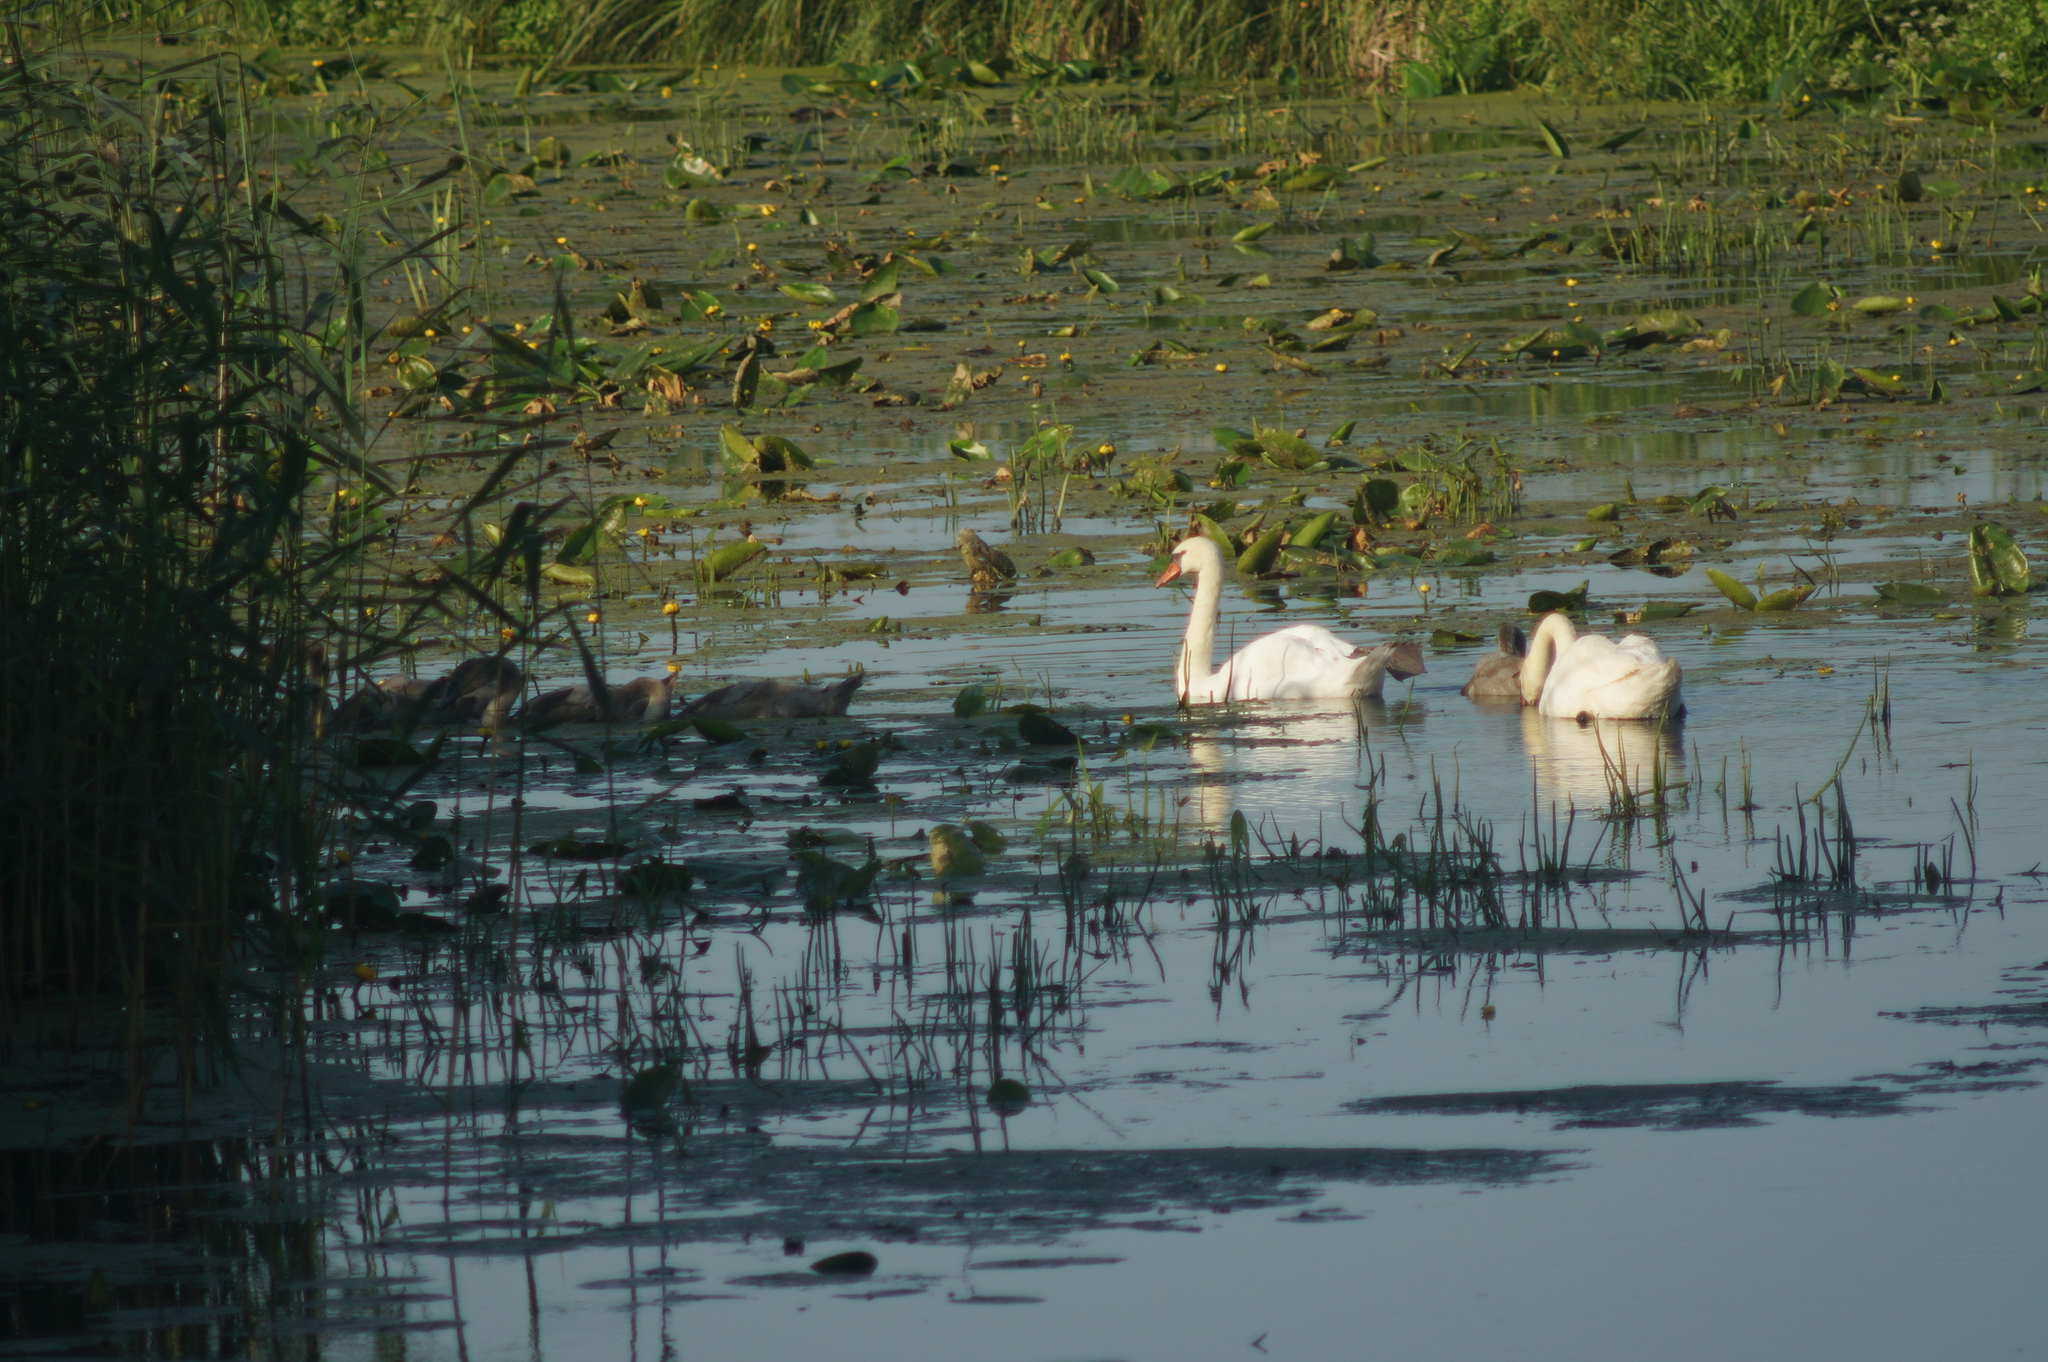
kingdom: Animalia
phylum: Chordata
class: Aves
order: Anseriformes
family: Anatidae
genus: Cygnus
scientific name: Cygnus olor
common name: Mute swan
